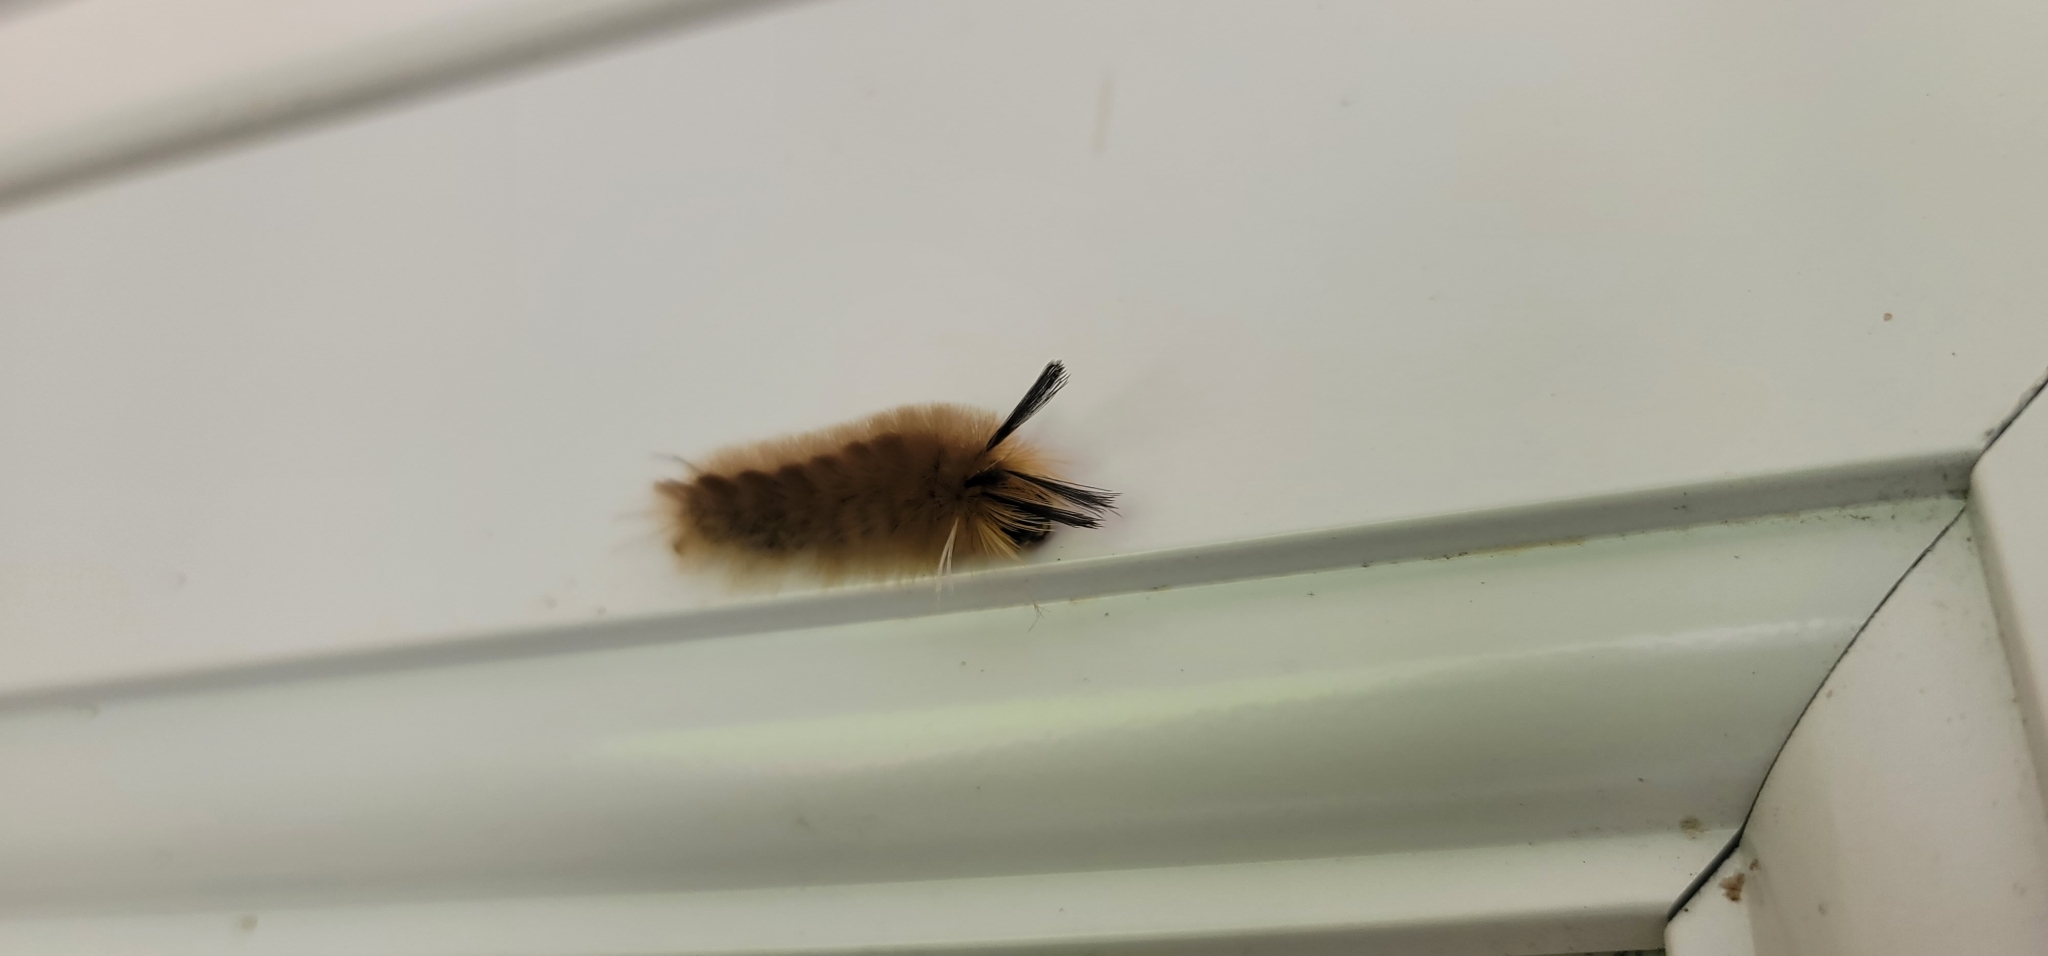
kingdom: Animalia
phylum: Arthropoda
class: Insecta
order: Lepidoptera
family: Erebidae
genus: Halysidota
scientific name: Halysidota tessellaris
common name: Banded tussock moth
